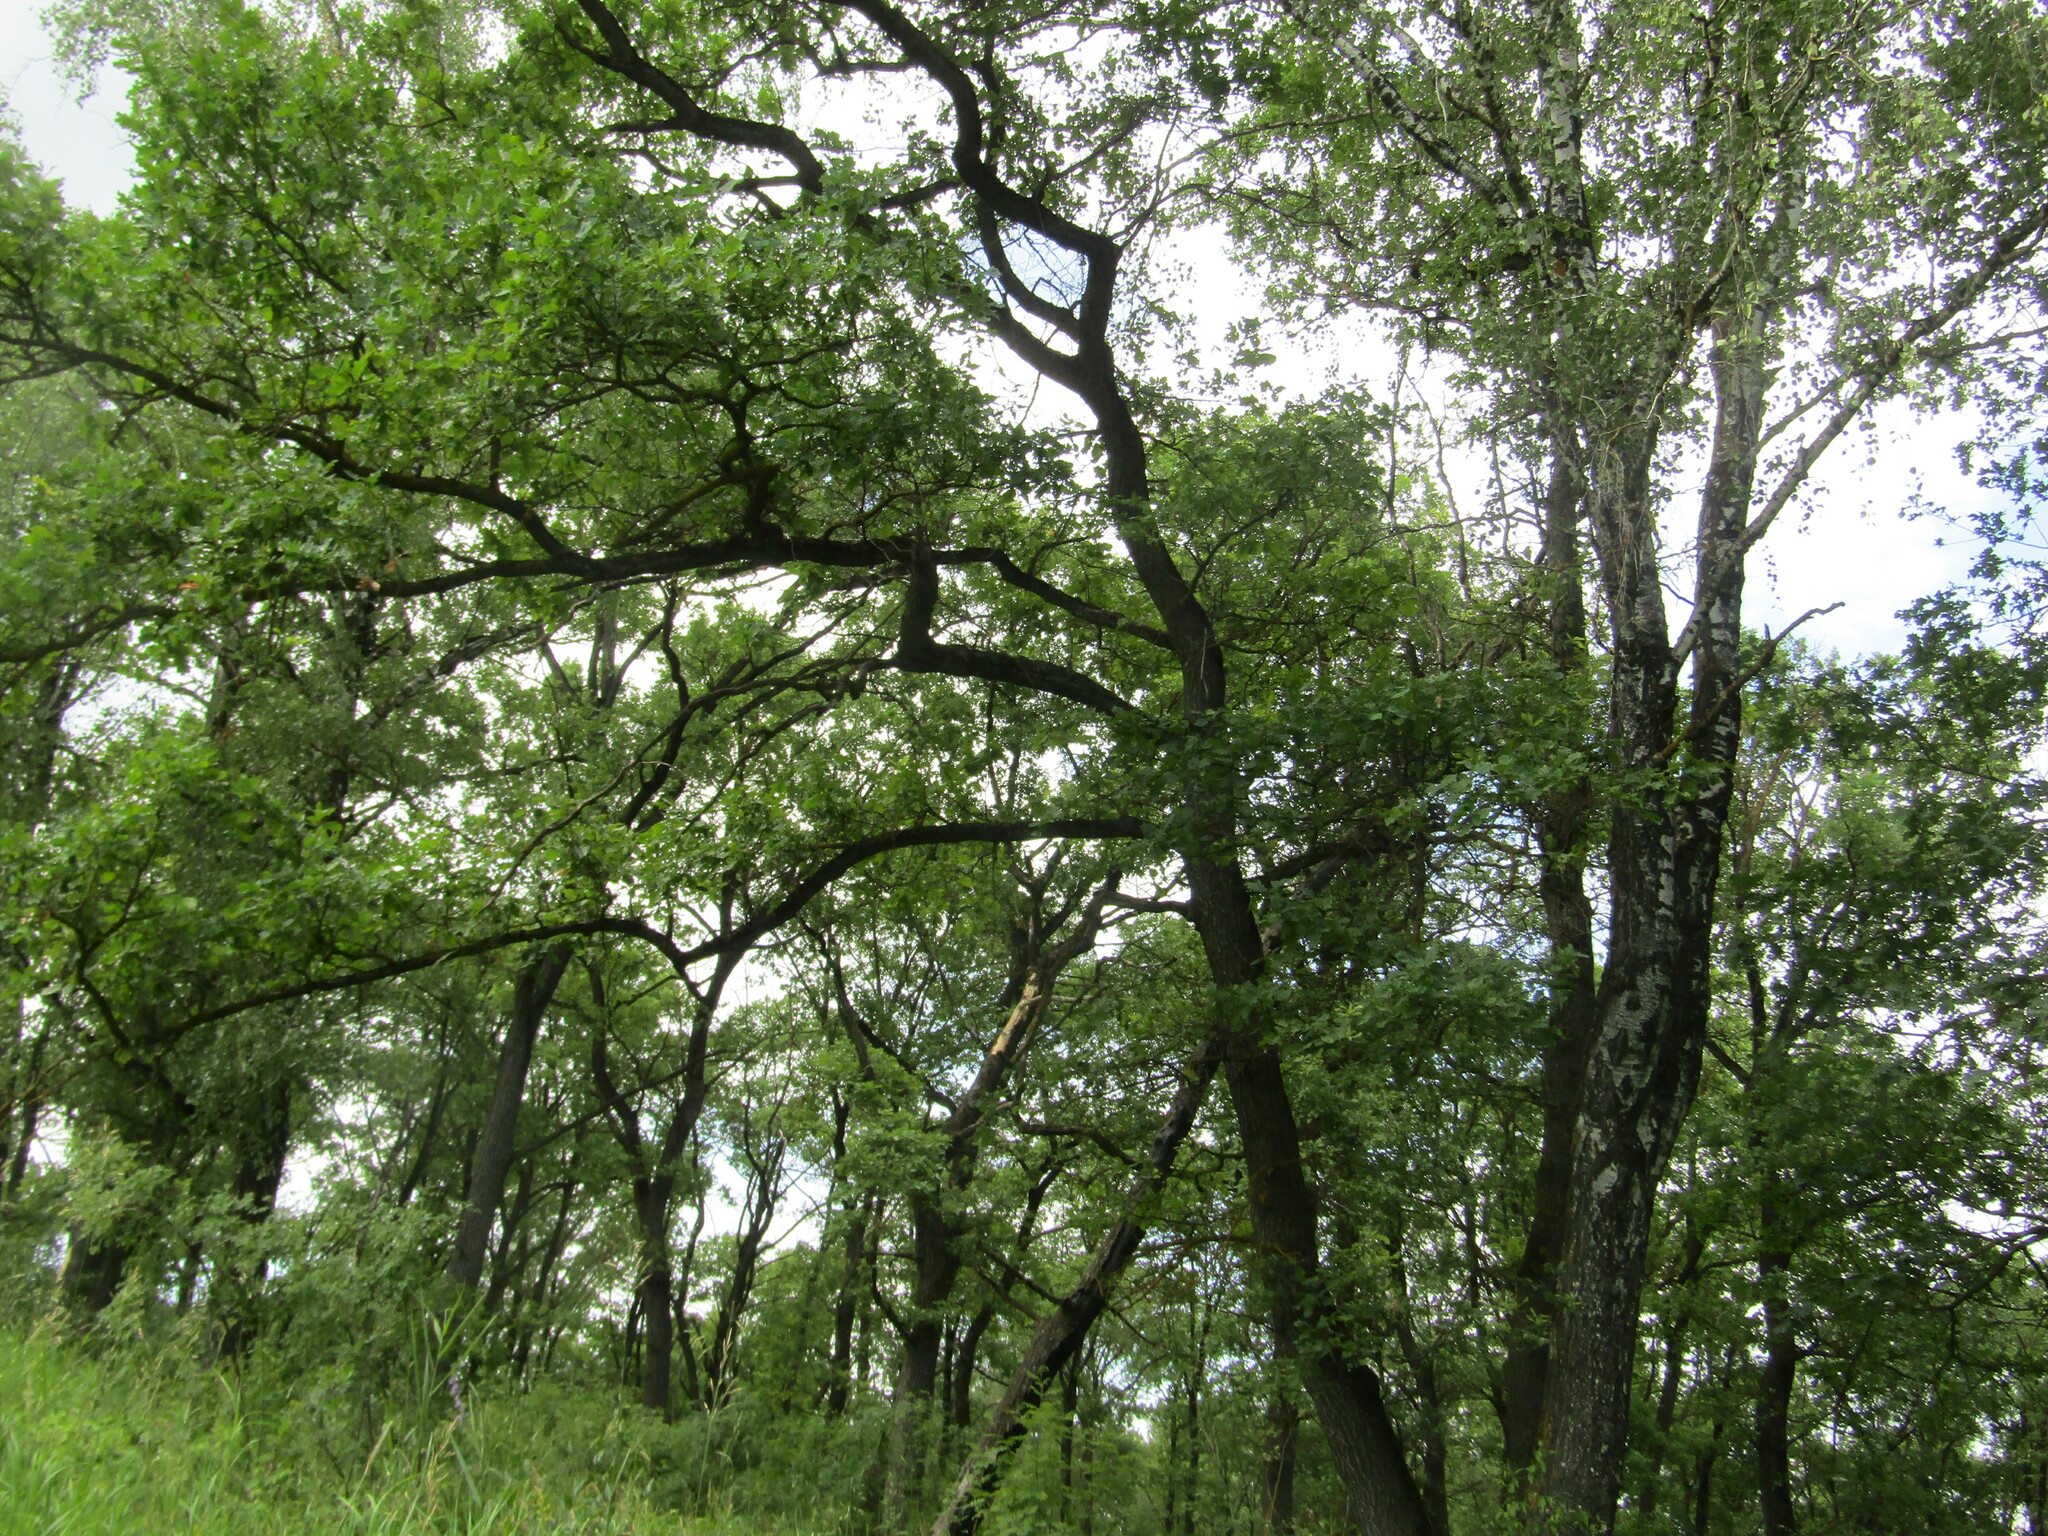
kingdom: Plantae
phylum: Tracheophyta
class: Magnoliopsida
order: Fagales
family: Fagaceae
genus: Quercus
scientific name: Quercus robur
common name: Pedunculate oak
